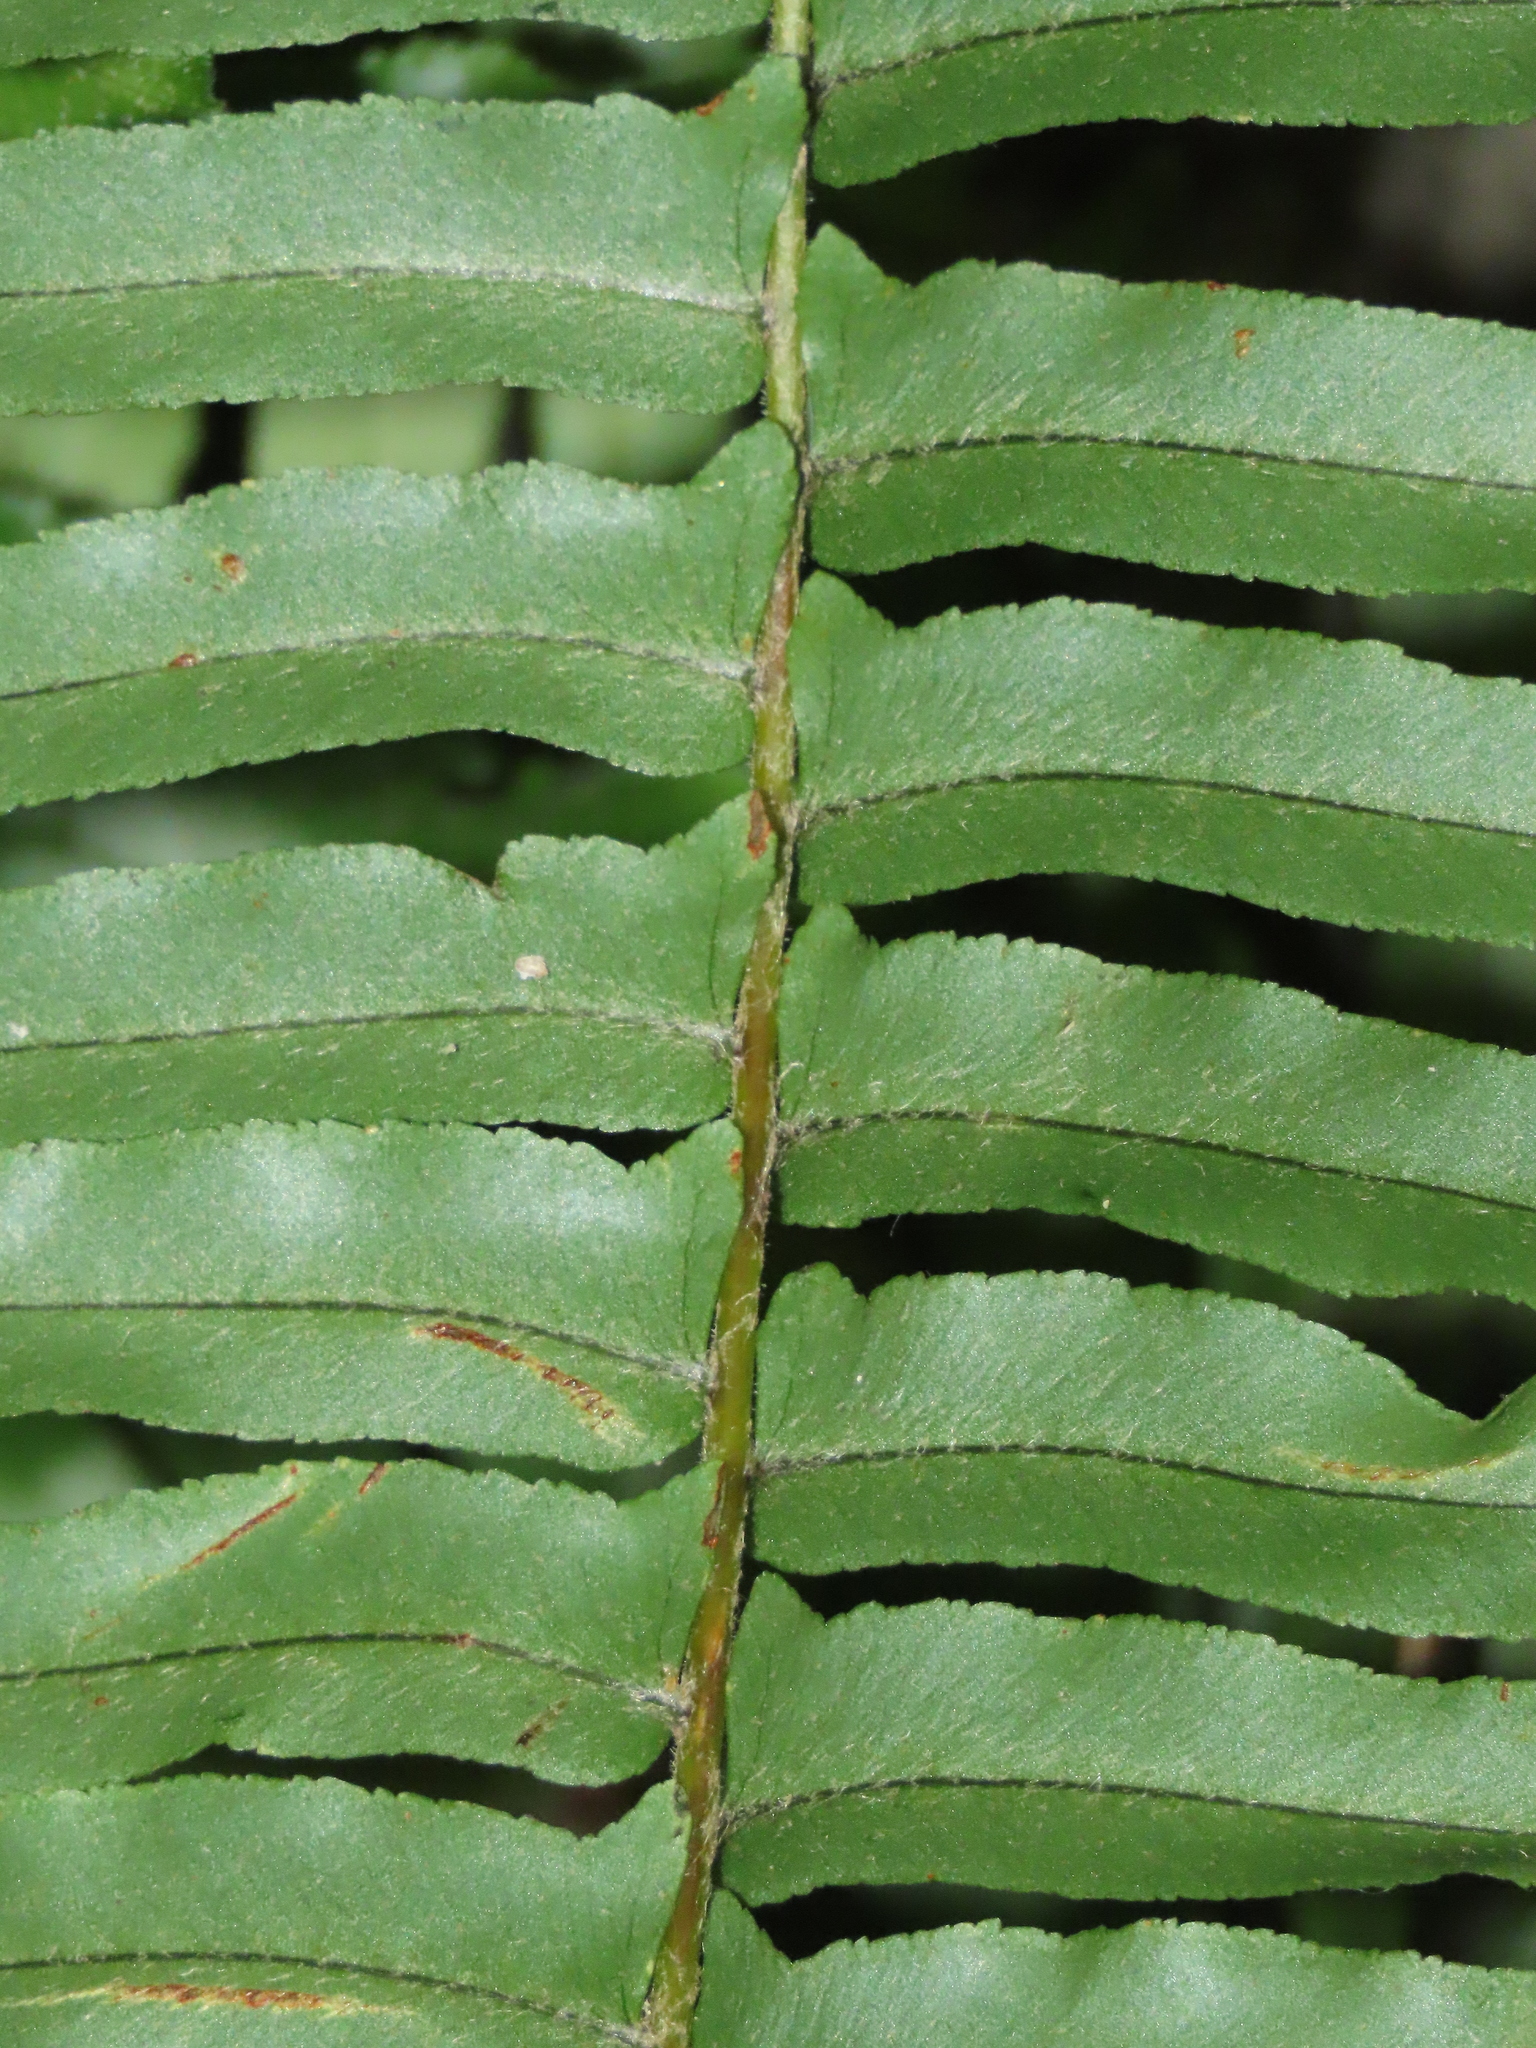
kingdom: Plantae
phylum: Tracheophyta
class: Polypodiopsida
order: Polypodiales
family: Nephrolepidaceae
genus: Nephrolepis
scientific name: Nephrolepis brownii
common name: Asian swordfern
